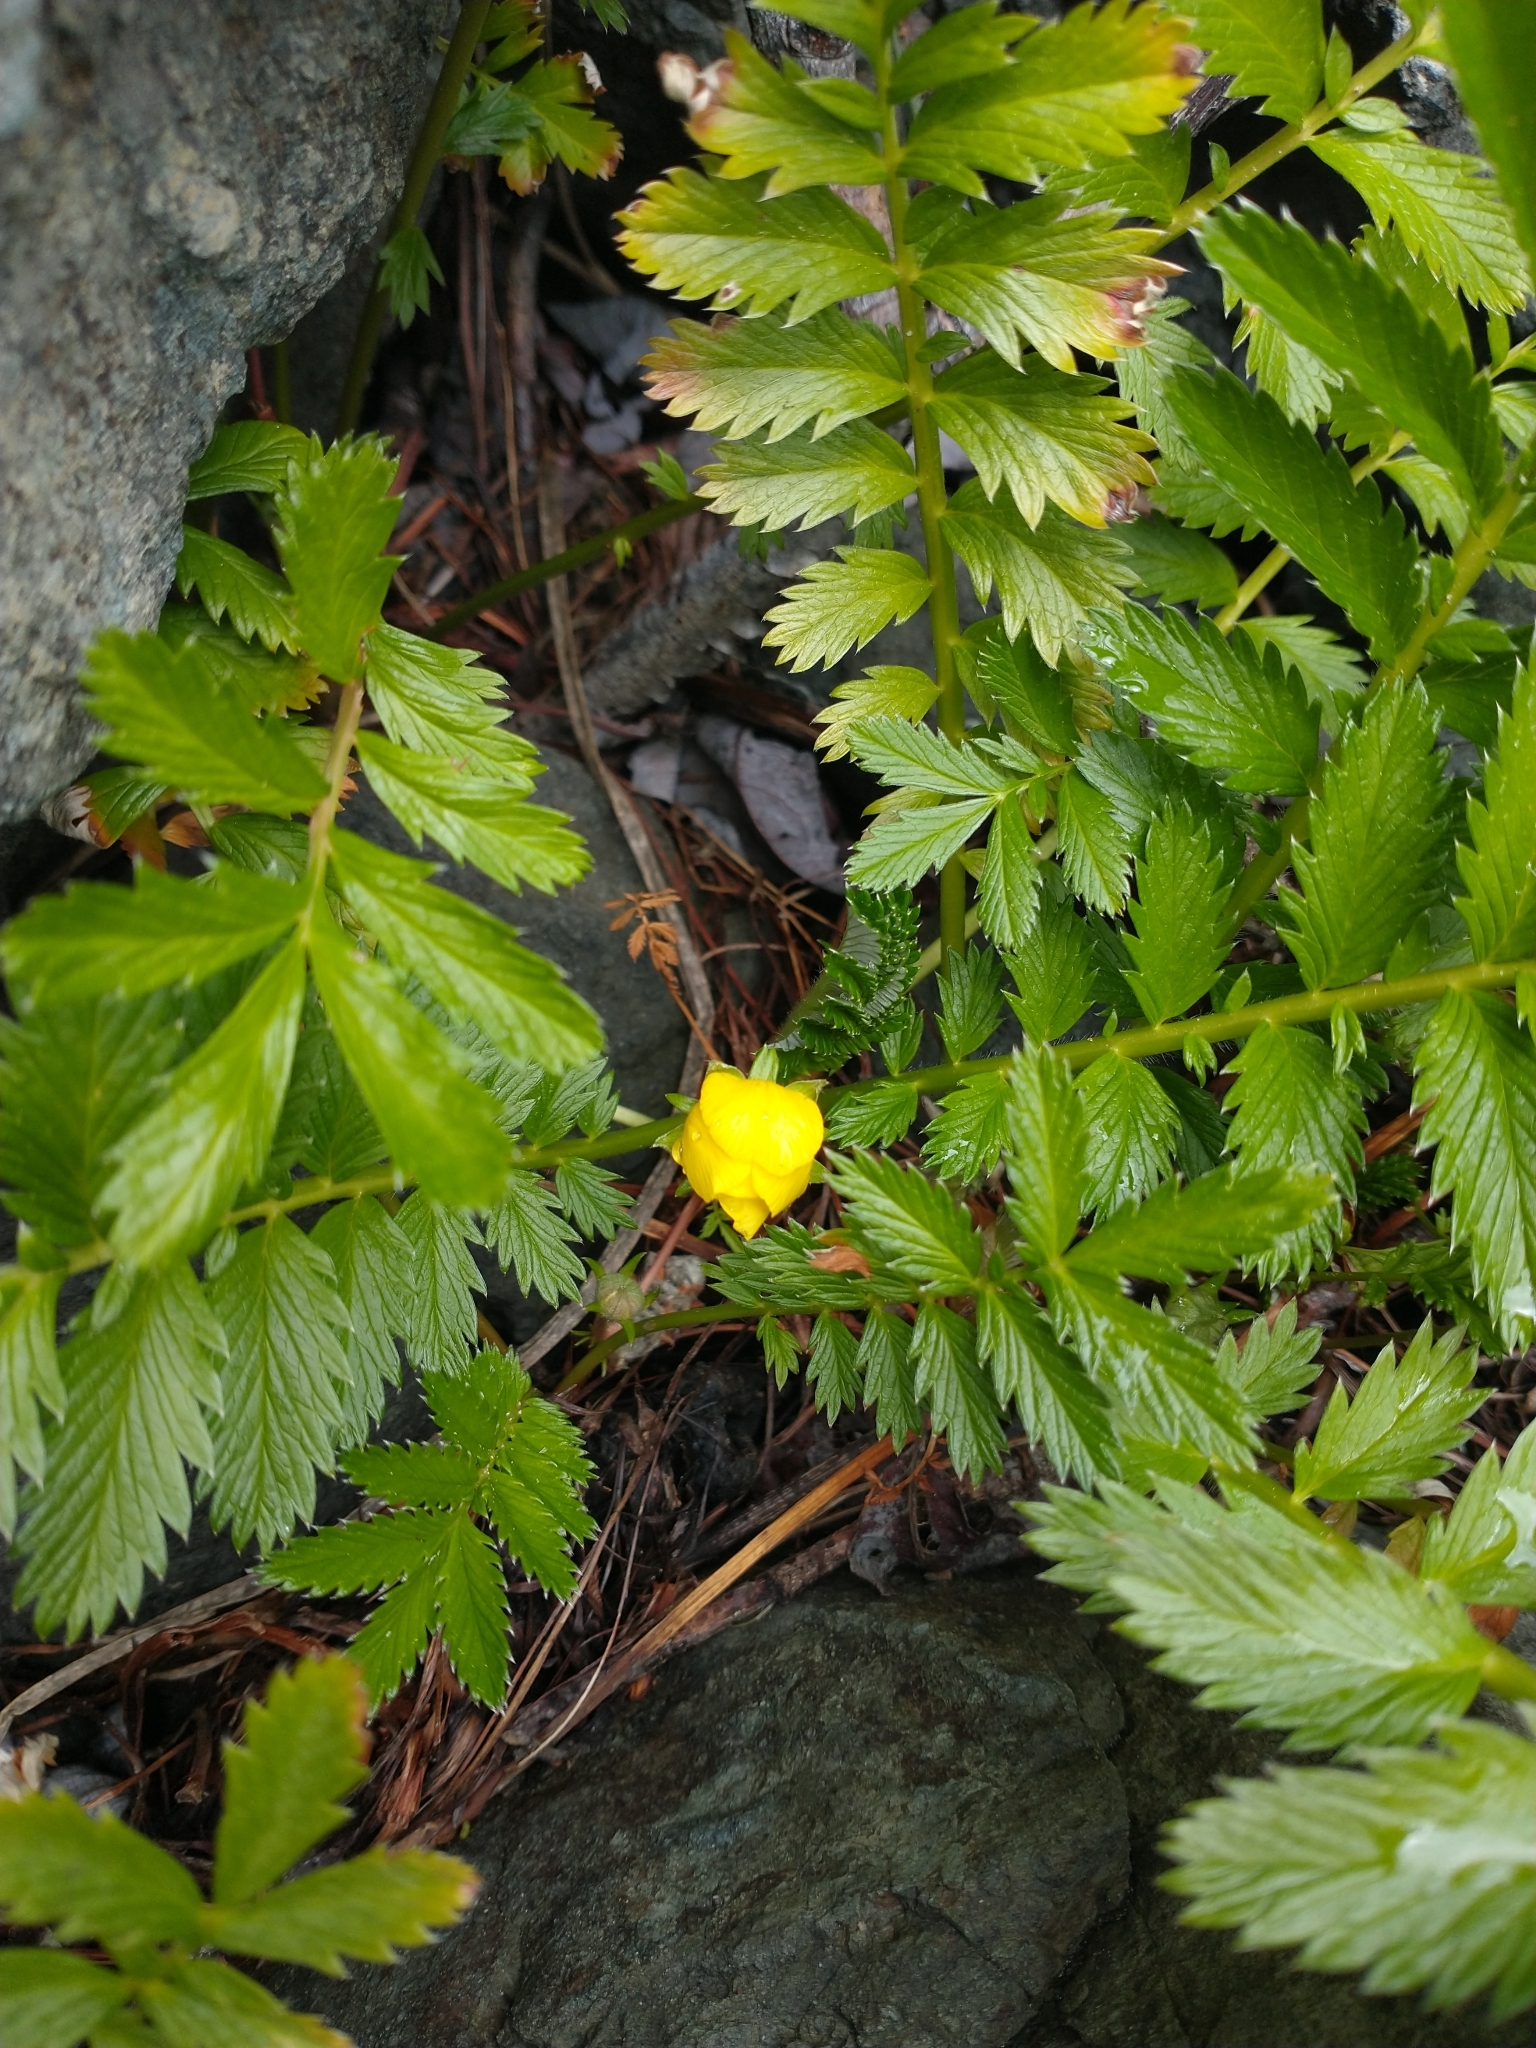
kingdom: Plantae
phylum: Tracheophyta
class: Magnoliopsida
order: Rosales
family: Rosaceae
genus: Argentina
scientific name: Argentina anserina
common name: Common silverweed
